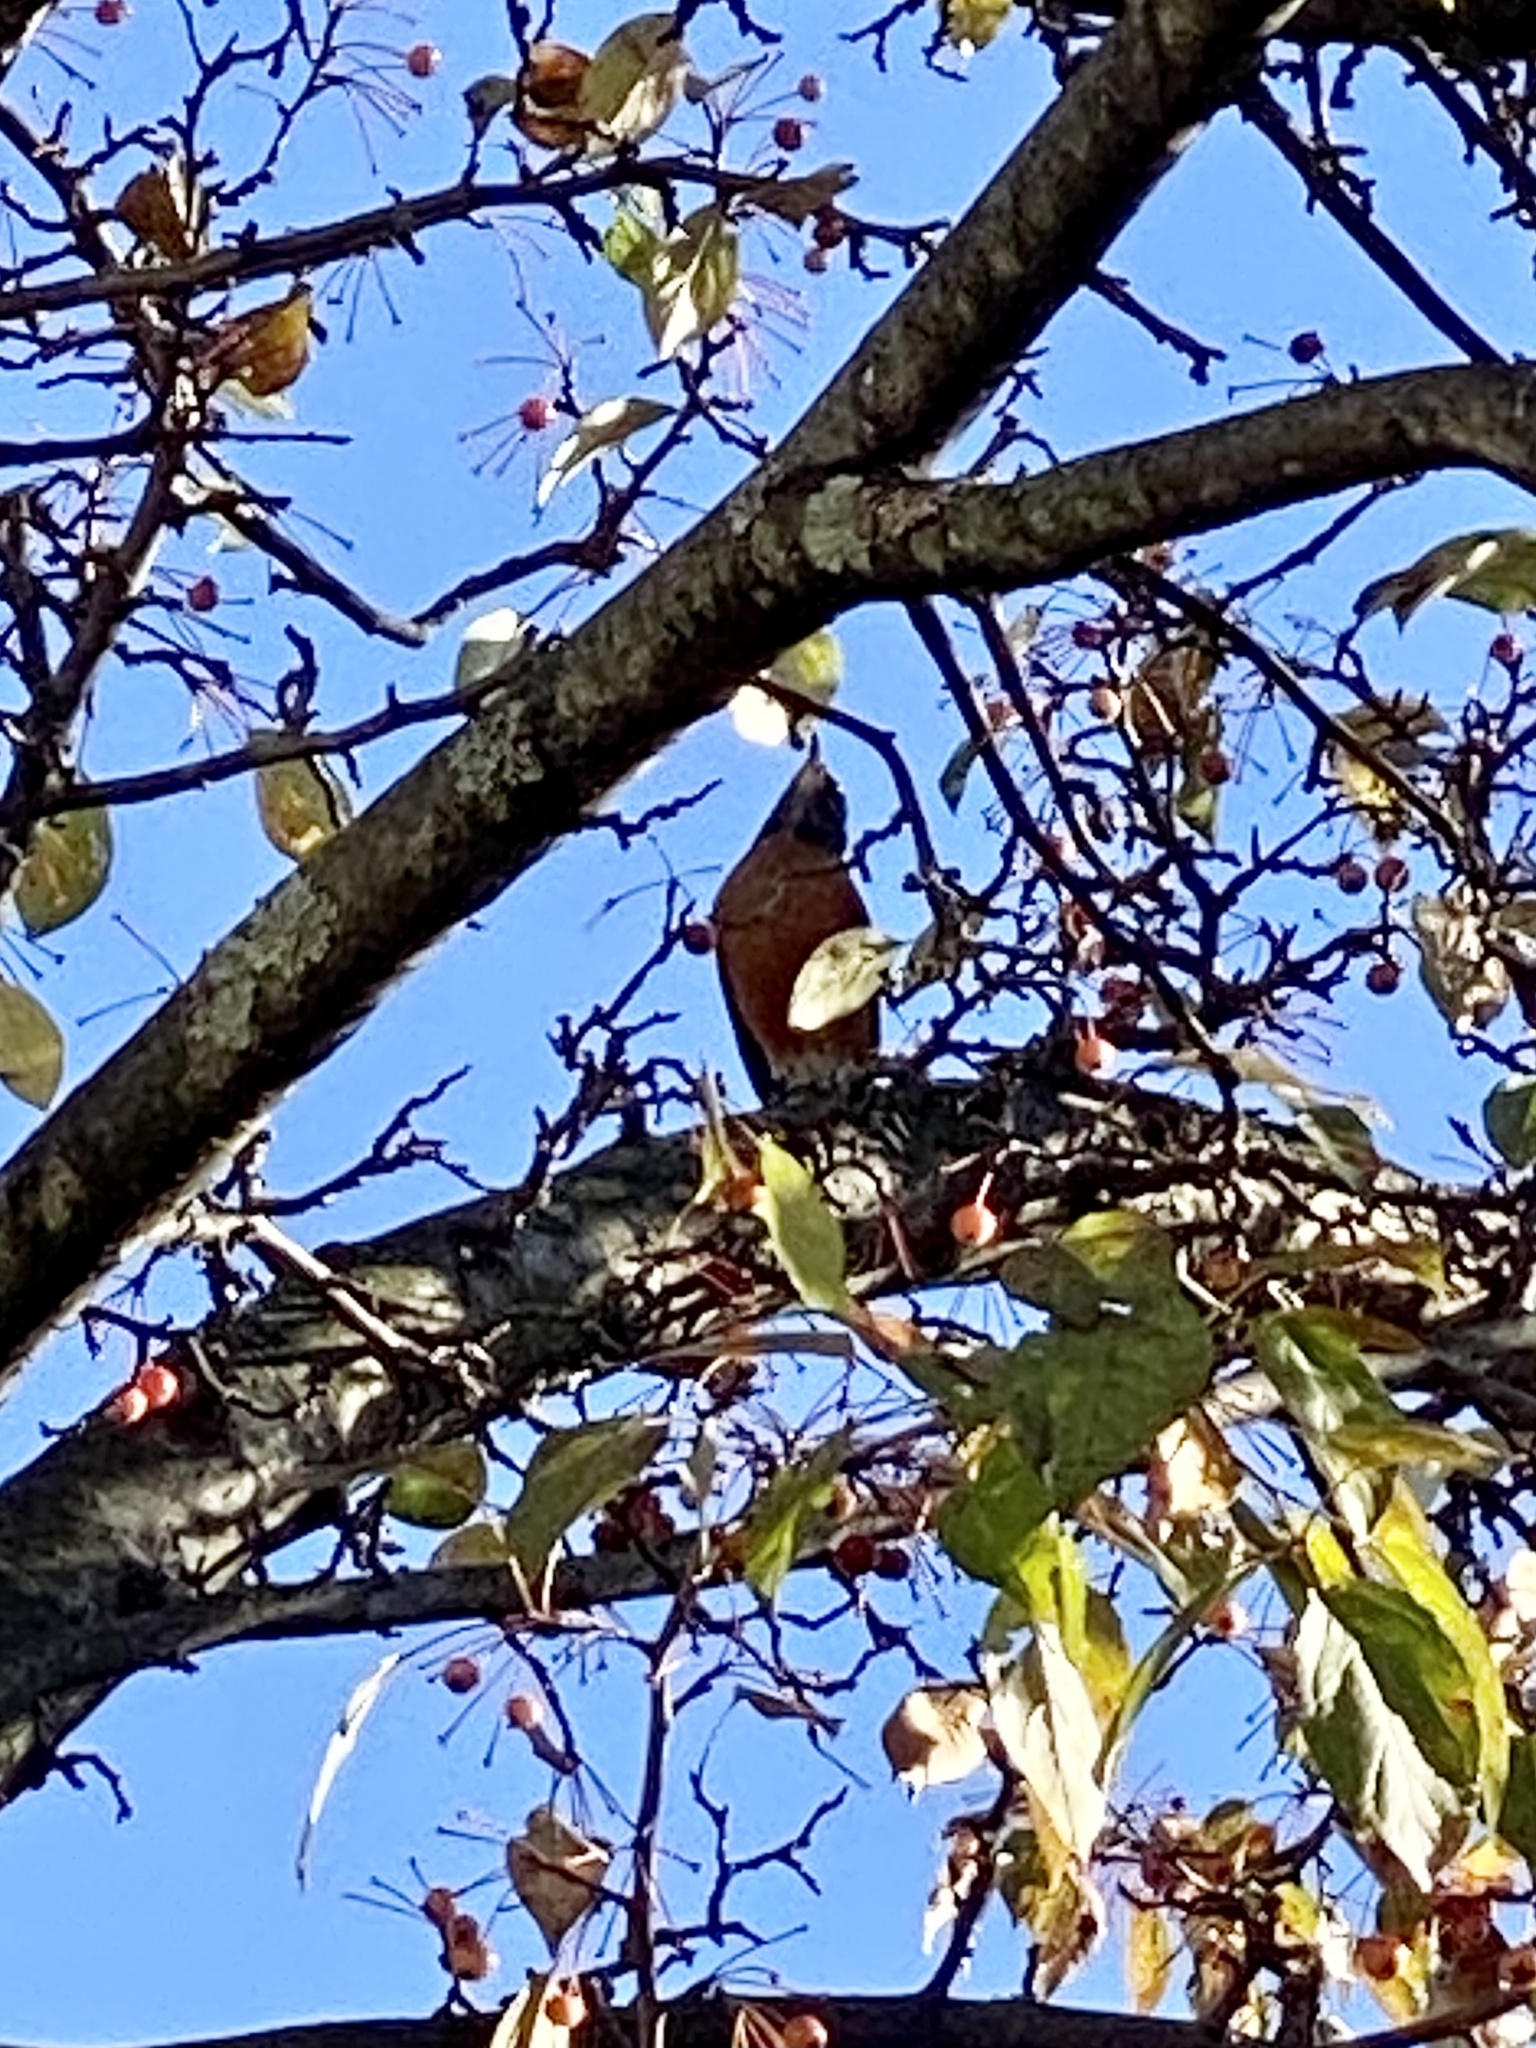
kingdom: Animalia
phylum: Chordata
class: Aves
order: Passeriformes
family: Turdidae
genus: Turdus
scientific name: Turdus migratorius
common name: American robin
